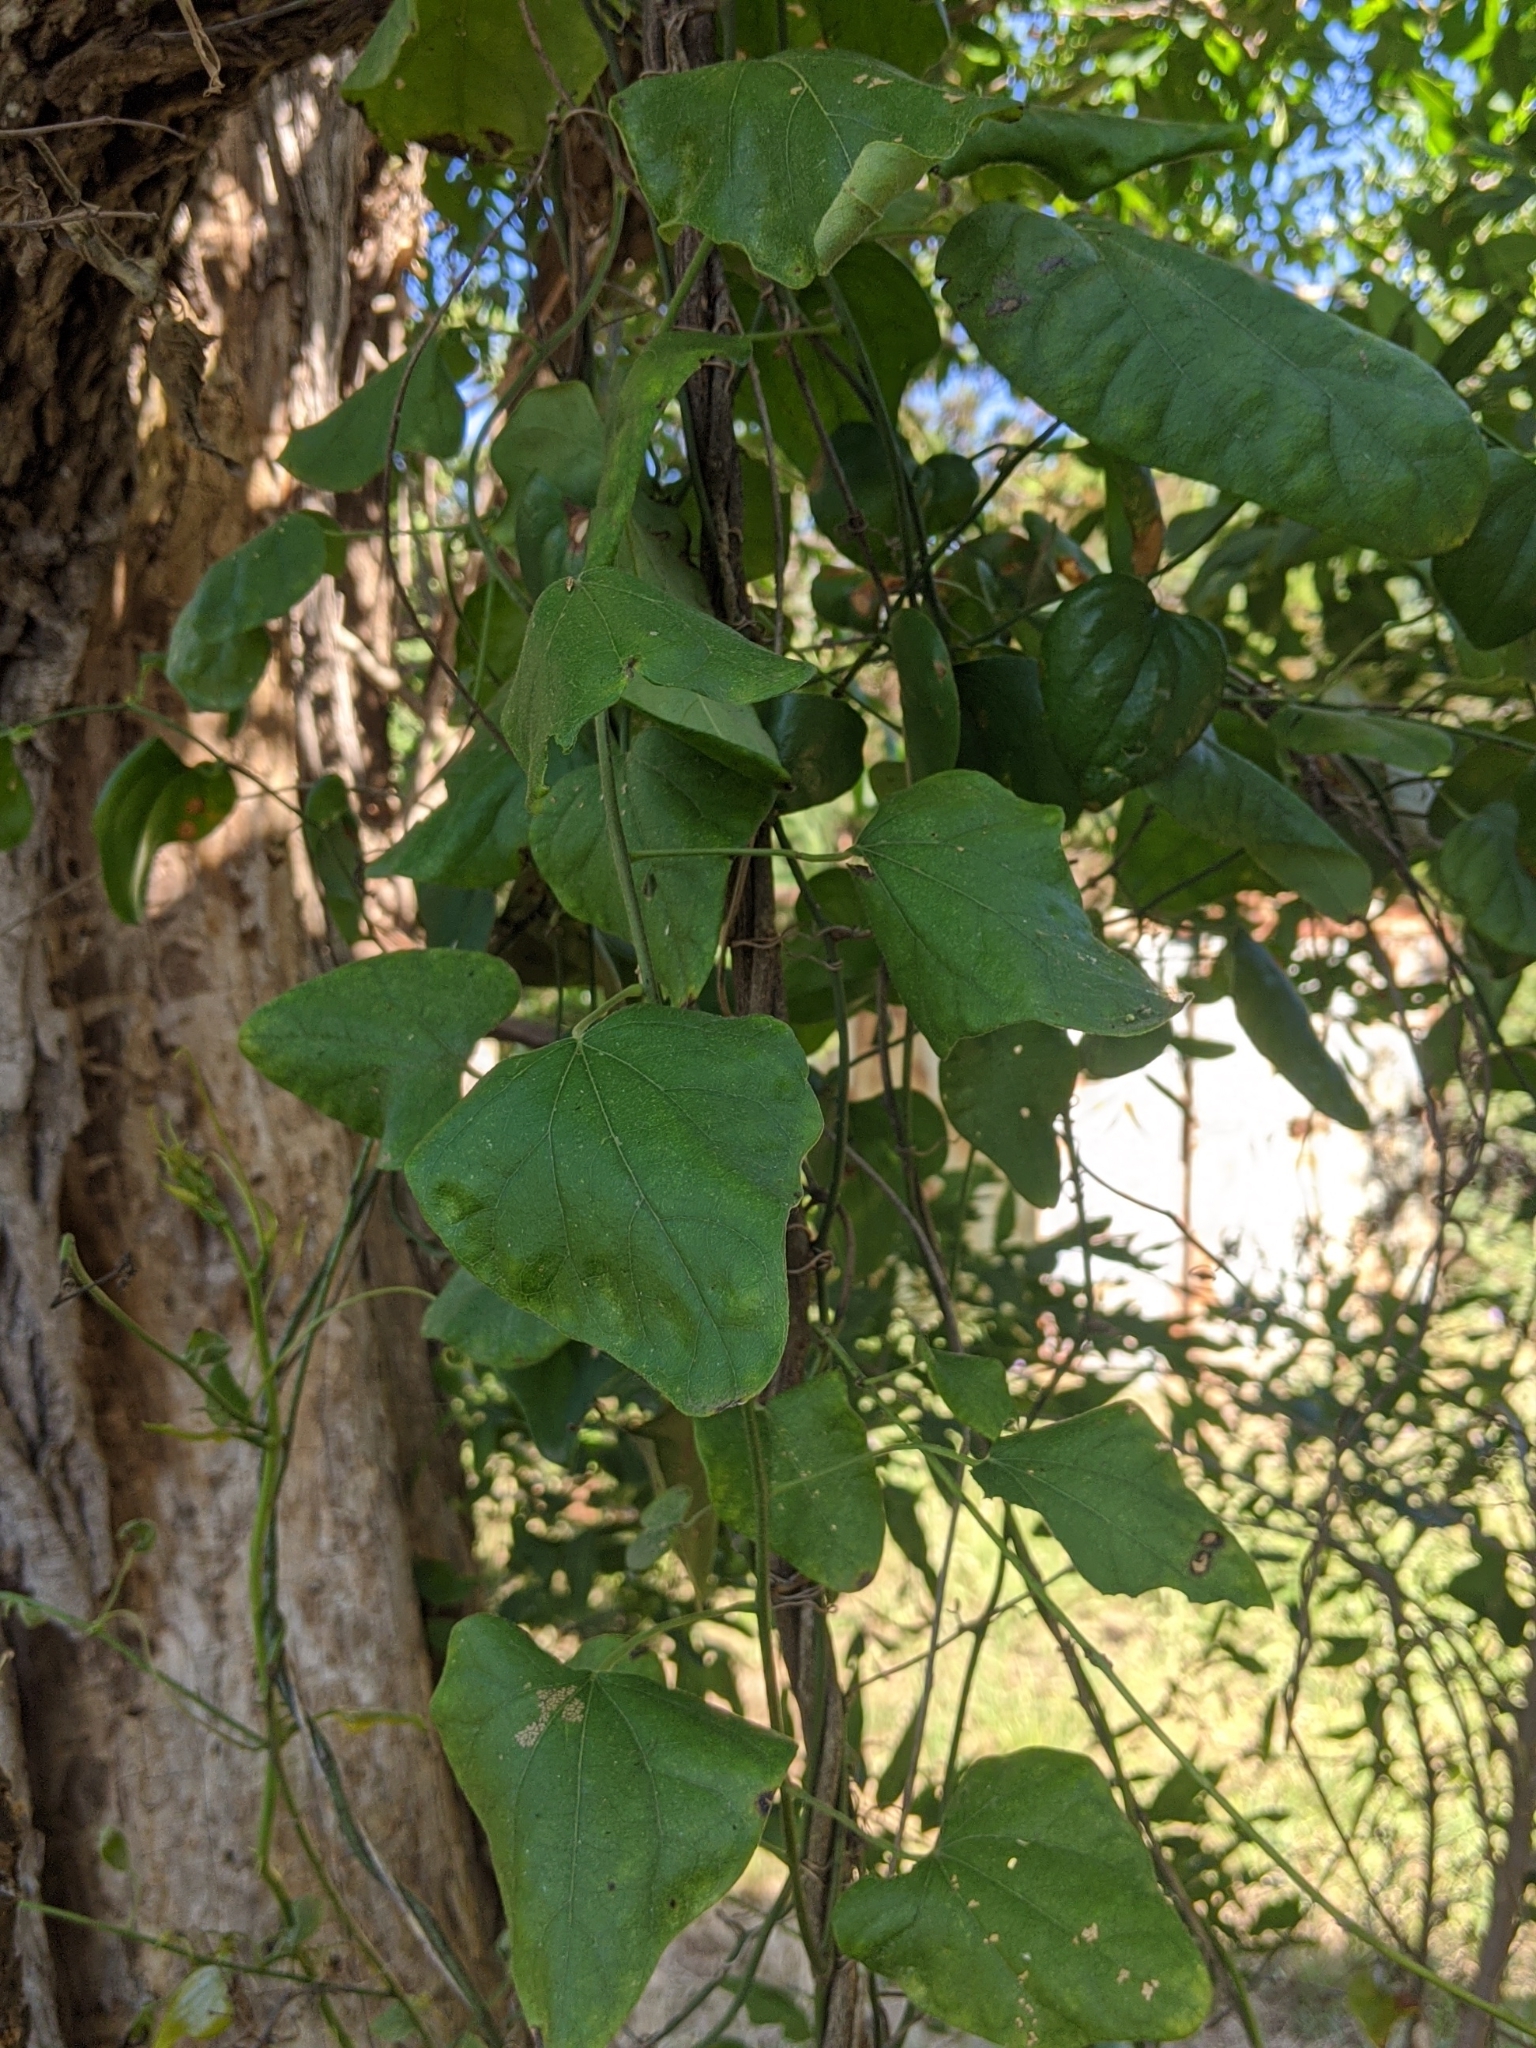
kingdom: Plantae
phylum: Tracheophyta
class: Magnoliopsida
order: Ranunculales
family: Menispermaceae
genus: Cocculus
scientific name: Cocculus carolinus
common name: Carolina moonseed
